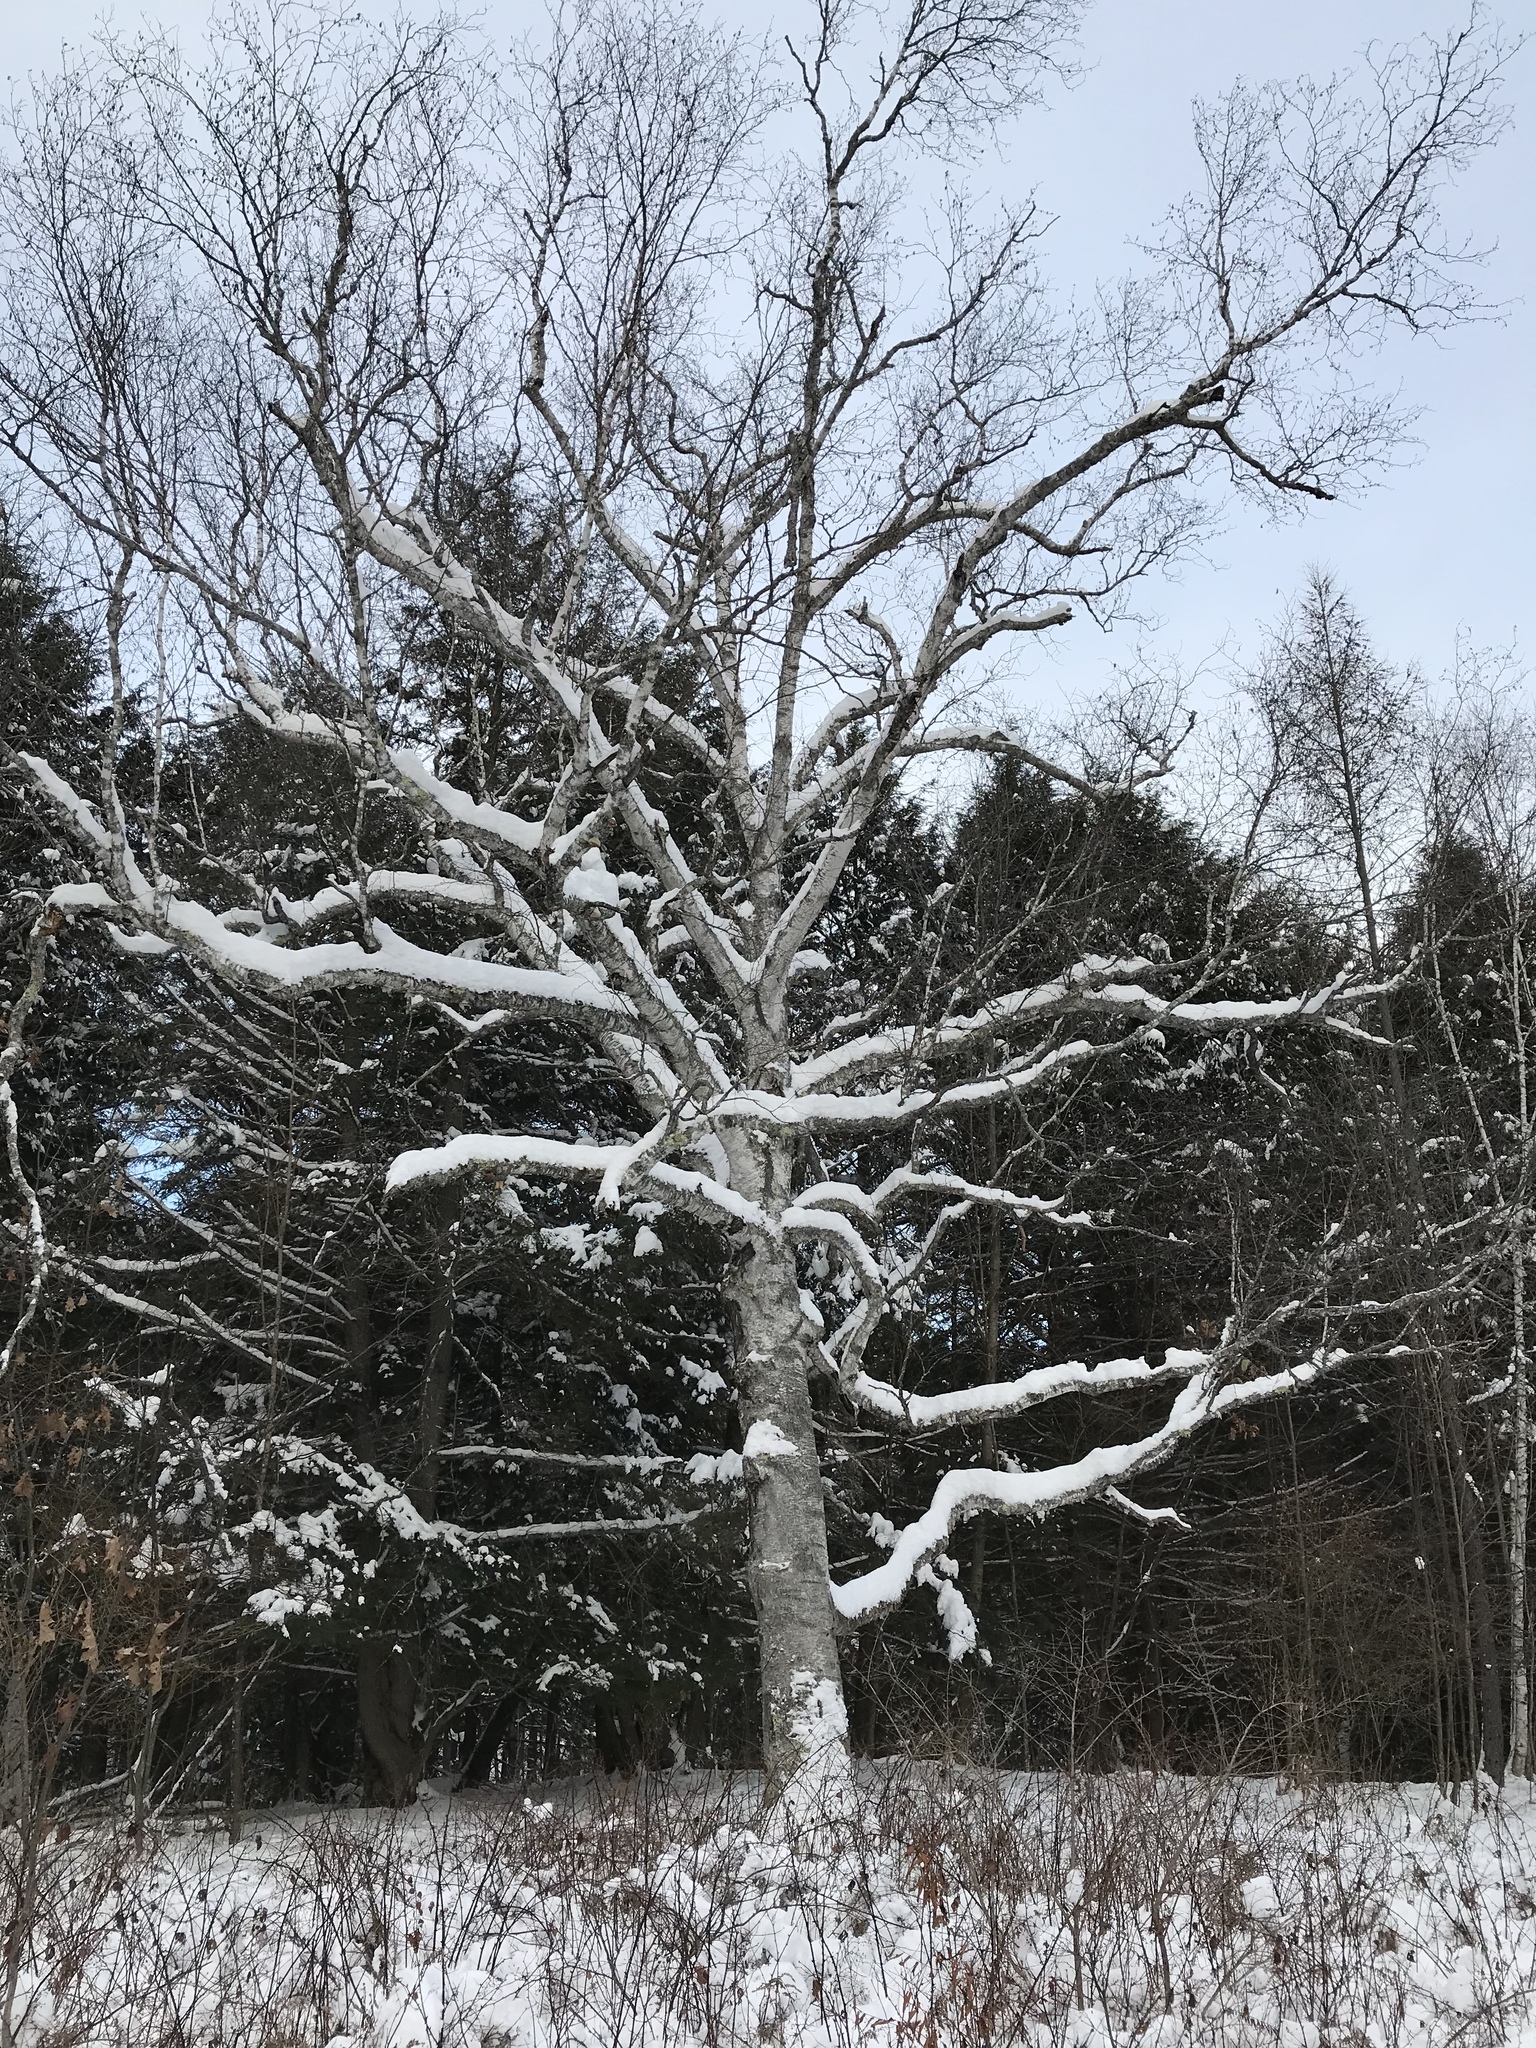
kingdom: Plantae
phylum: Tracheophyta
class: Magnoliopsida
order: Fagales
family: Betulaceae
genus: Betula
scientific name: Betula papyrifera
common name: Paper birch
